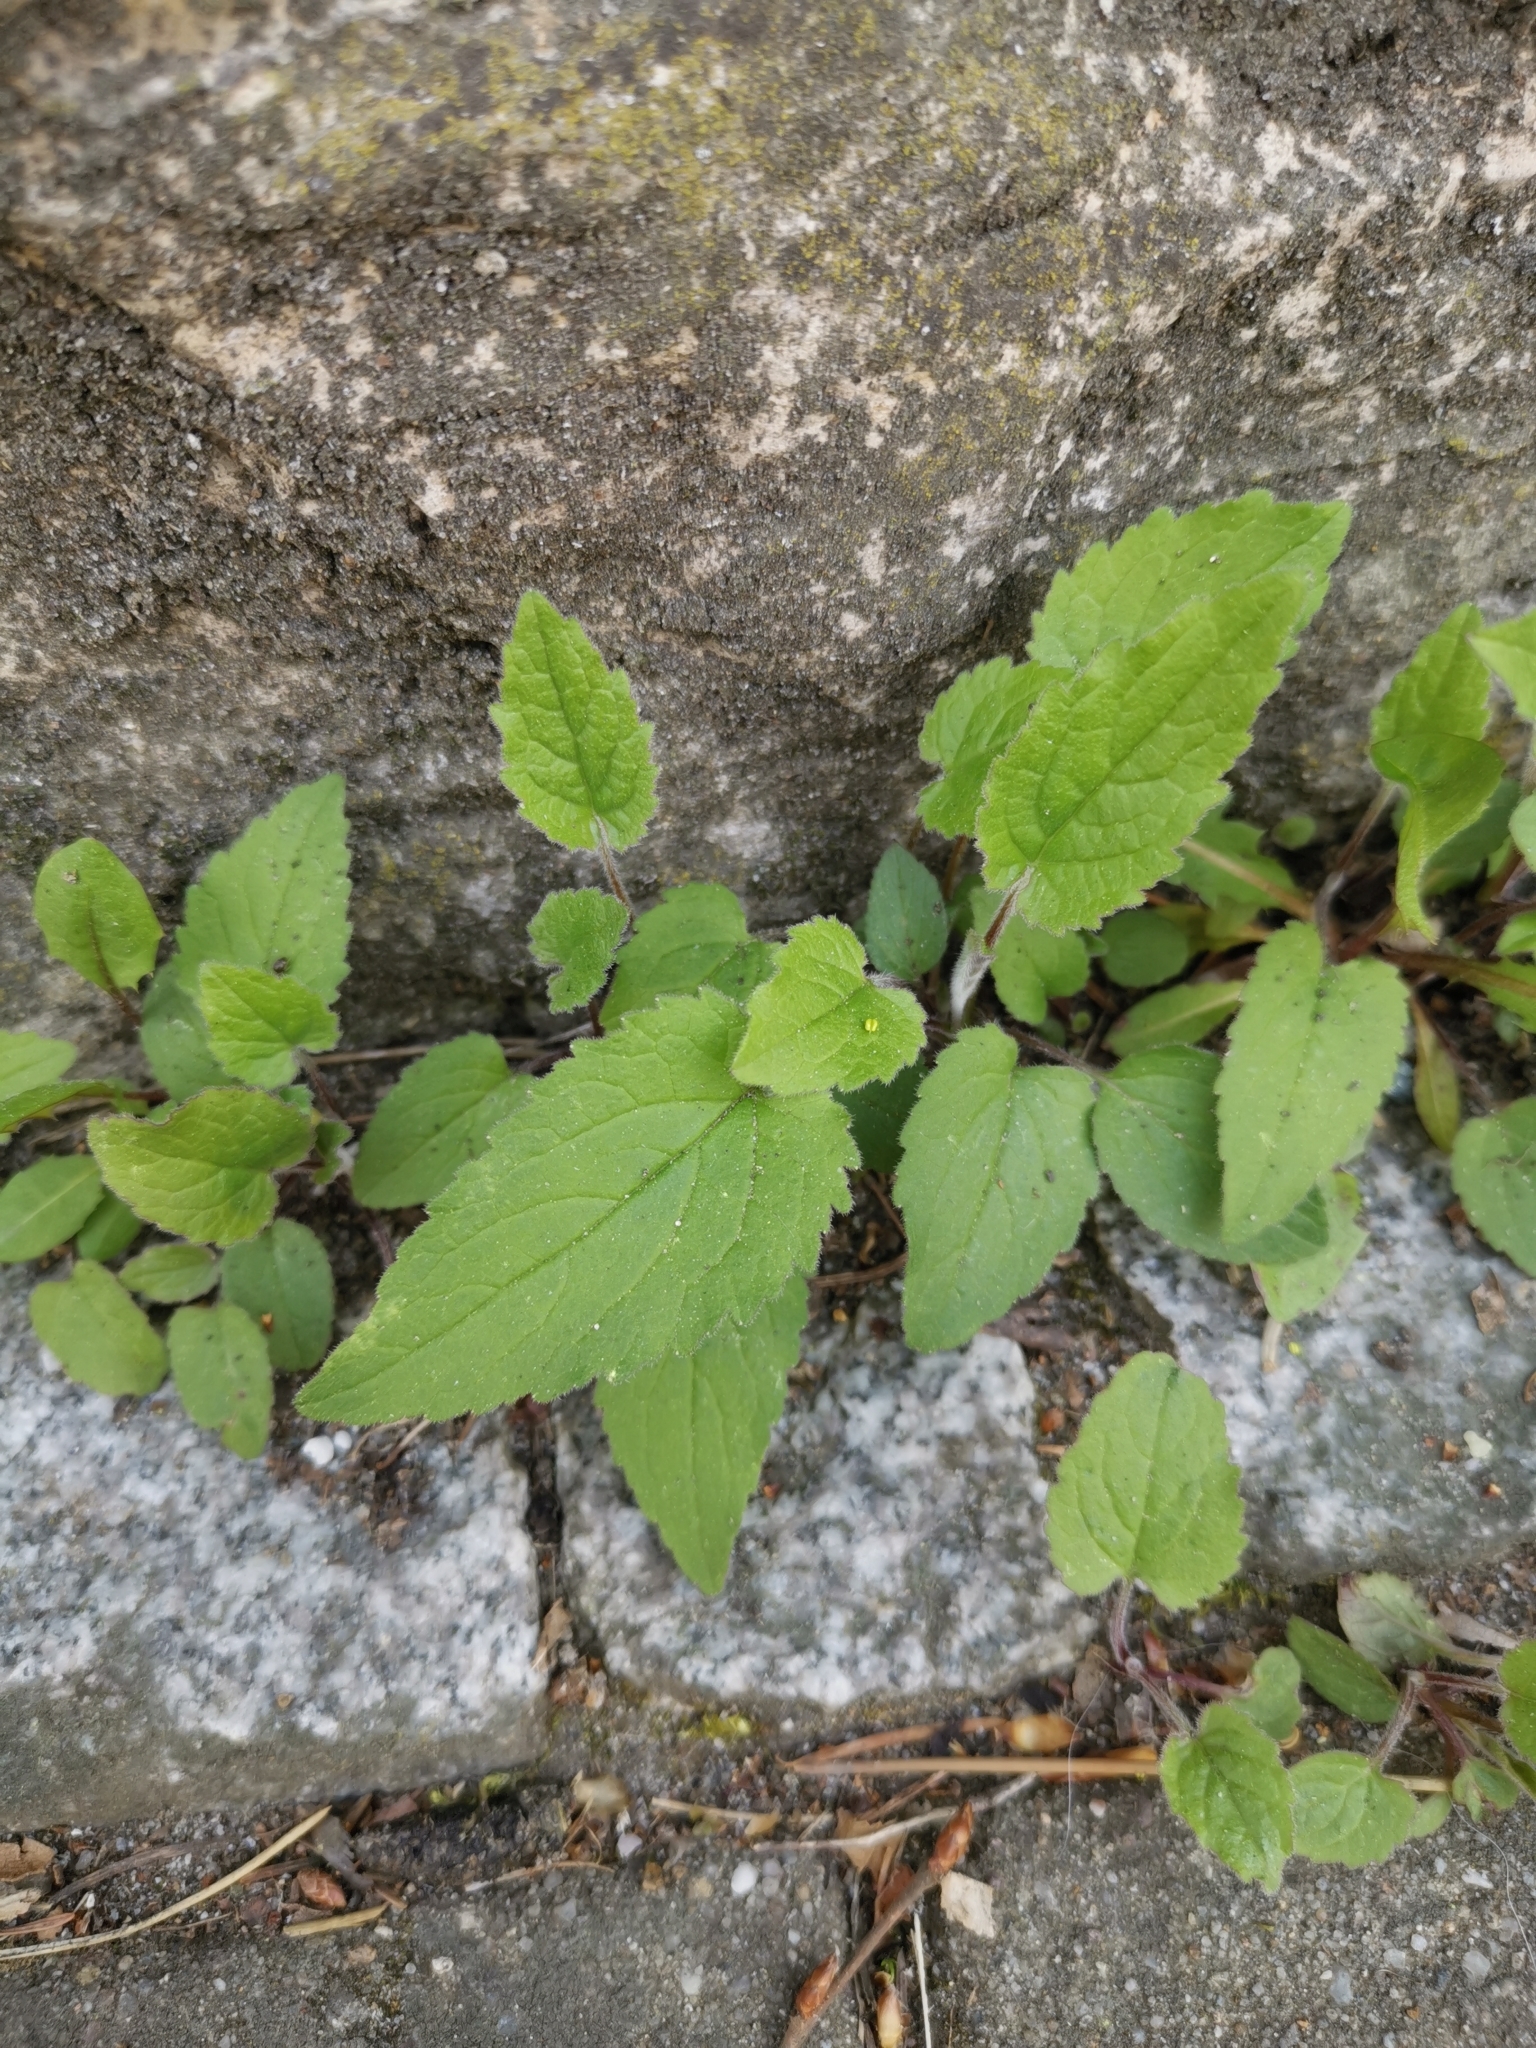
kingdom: Plantae
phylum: Tracheophyta
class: Magnoliopsida
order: Asterales
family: Campanulaceae
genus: Campanula
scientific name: Campanula rapunculoides
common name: Creeping bellflower
